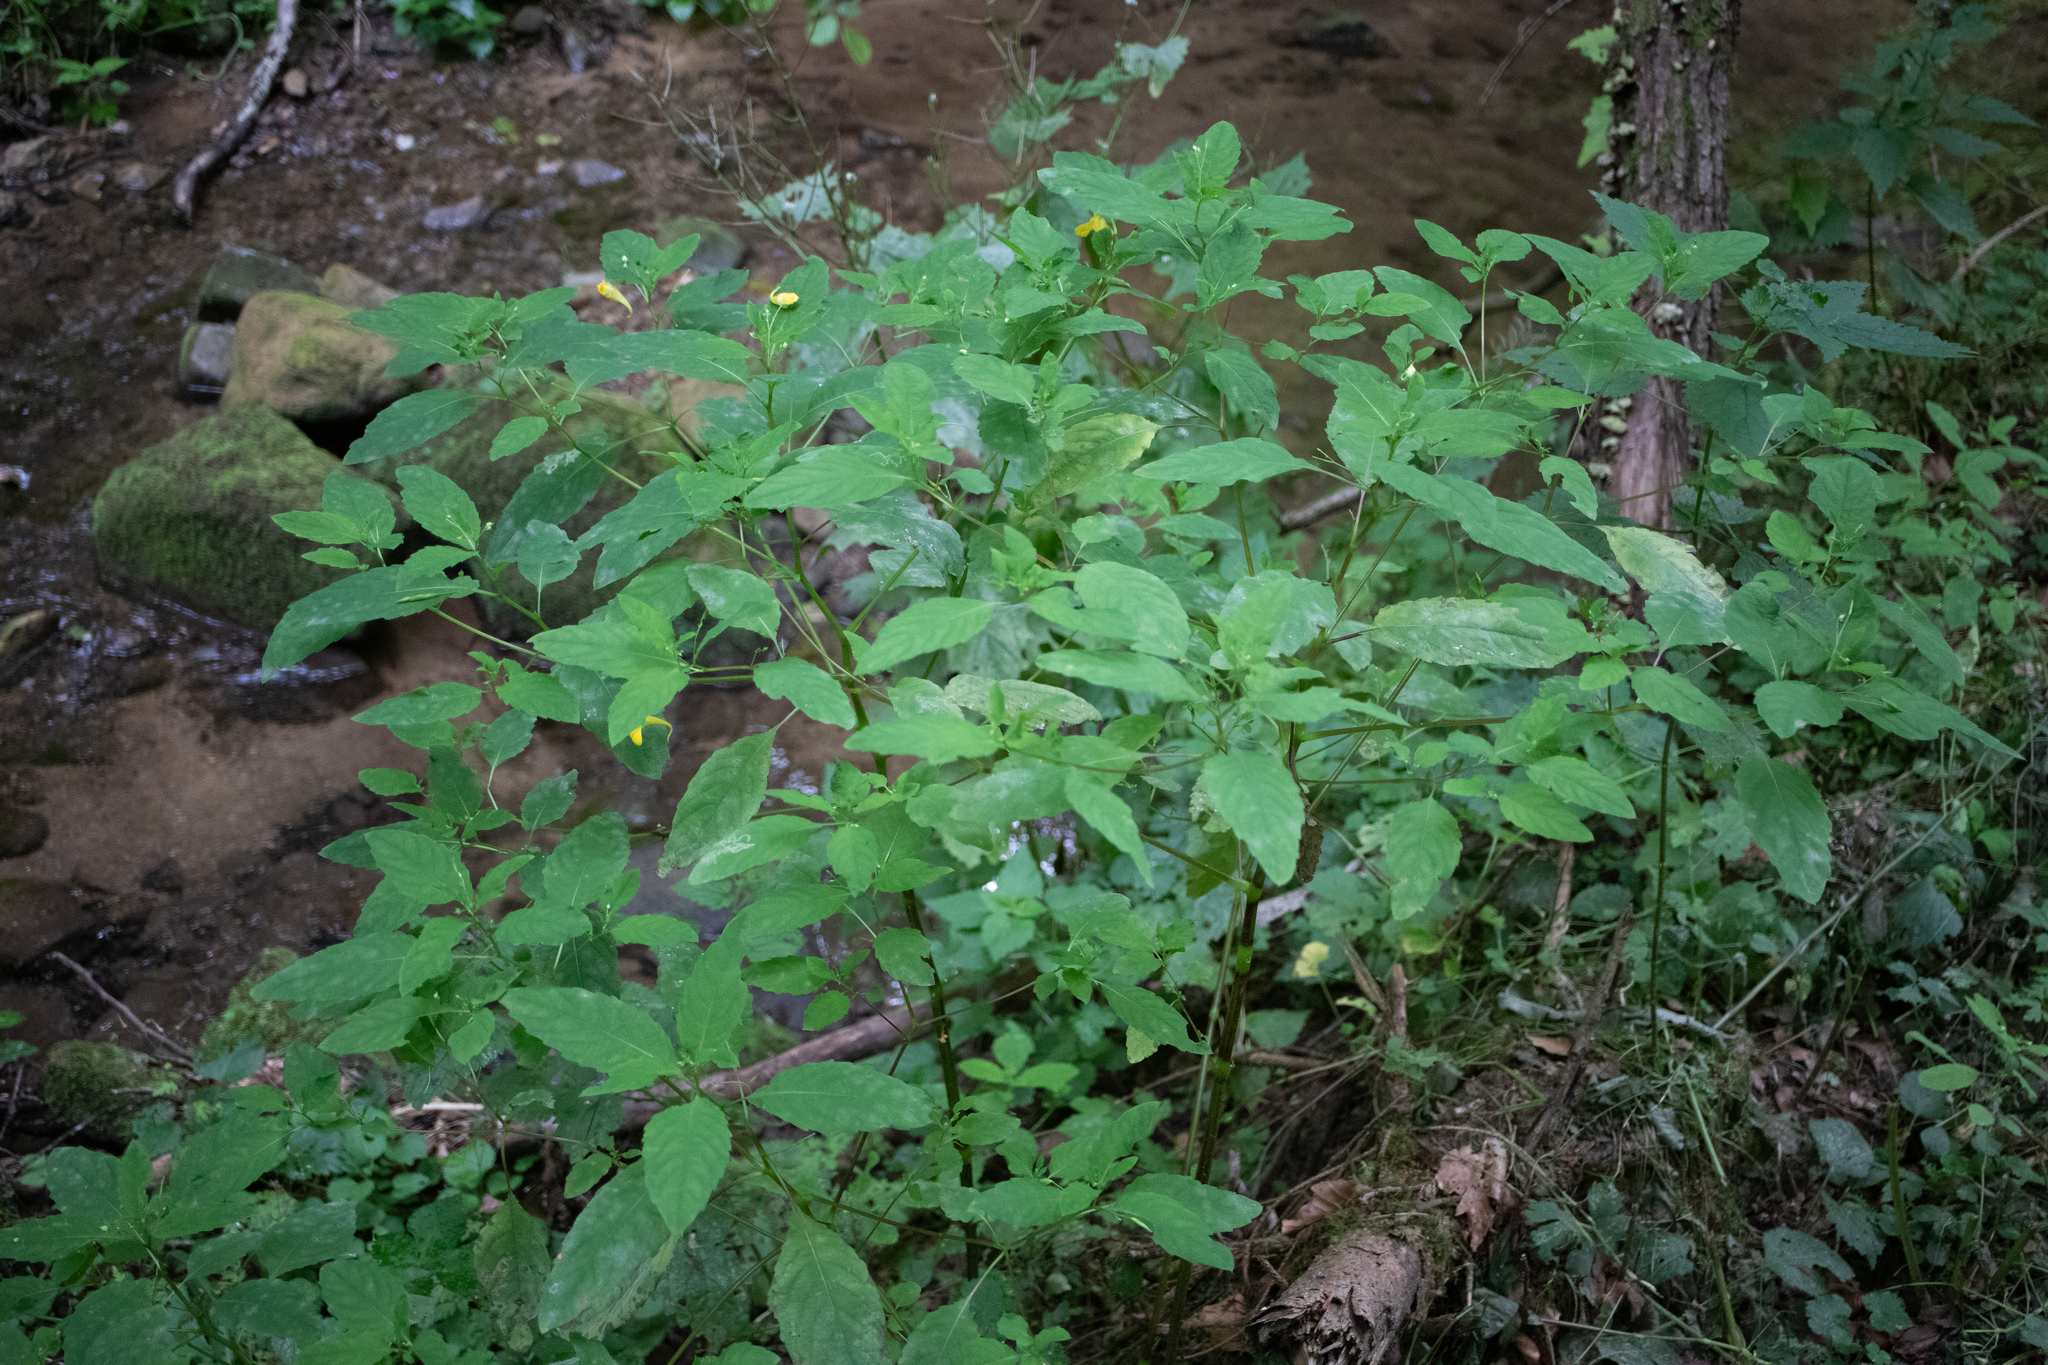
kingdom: Plantae
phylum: Tracheophyta
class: Magnoliopsida
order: Ericales
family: Balsaminaceae
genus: Impatiens
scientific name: Impatiens noli-tangere
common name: Touch-me-not balsam
